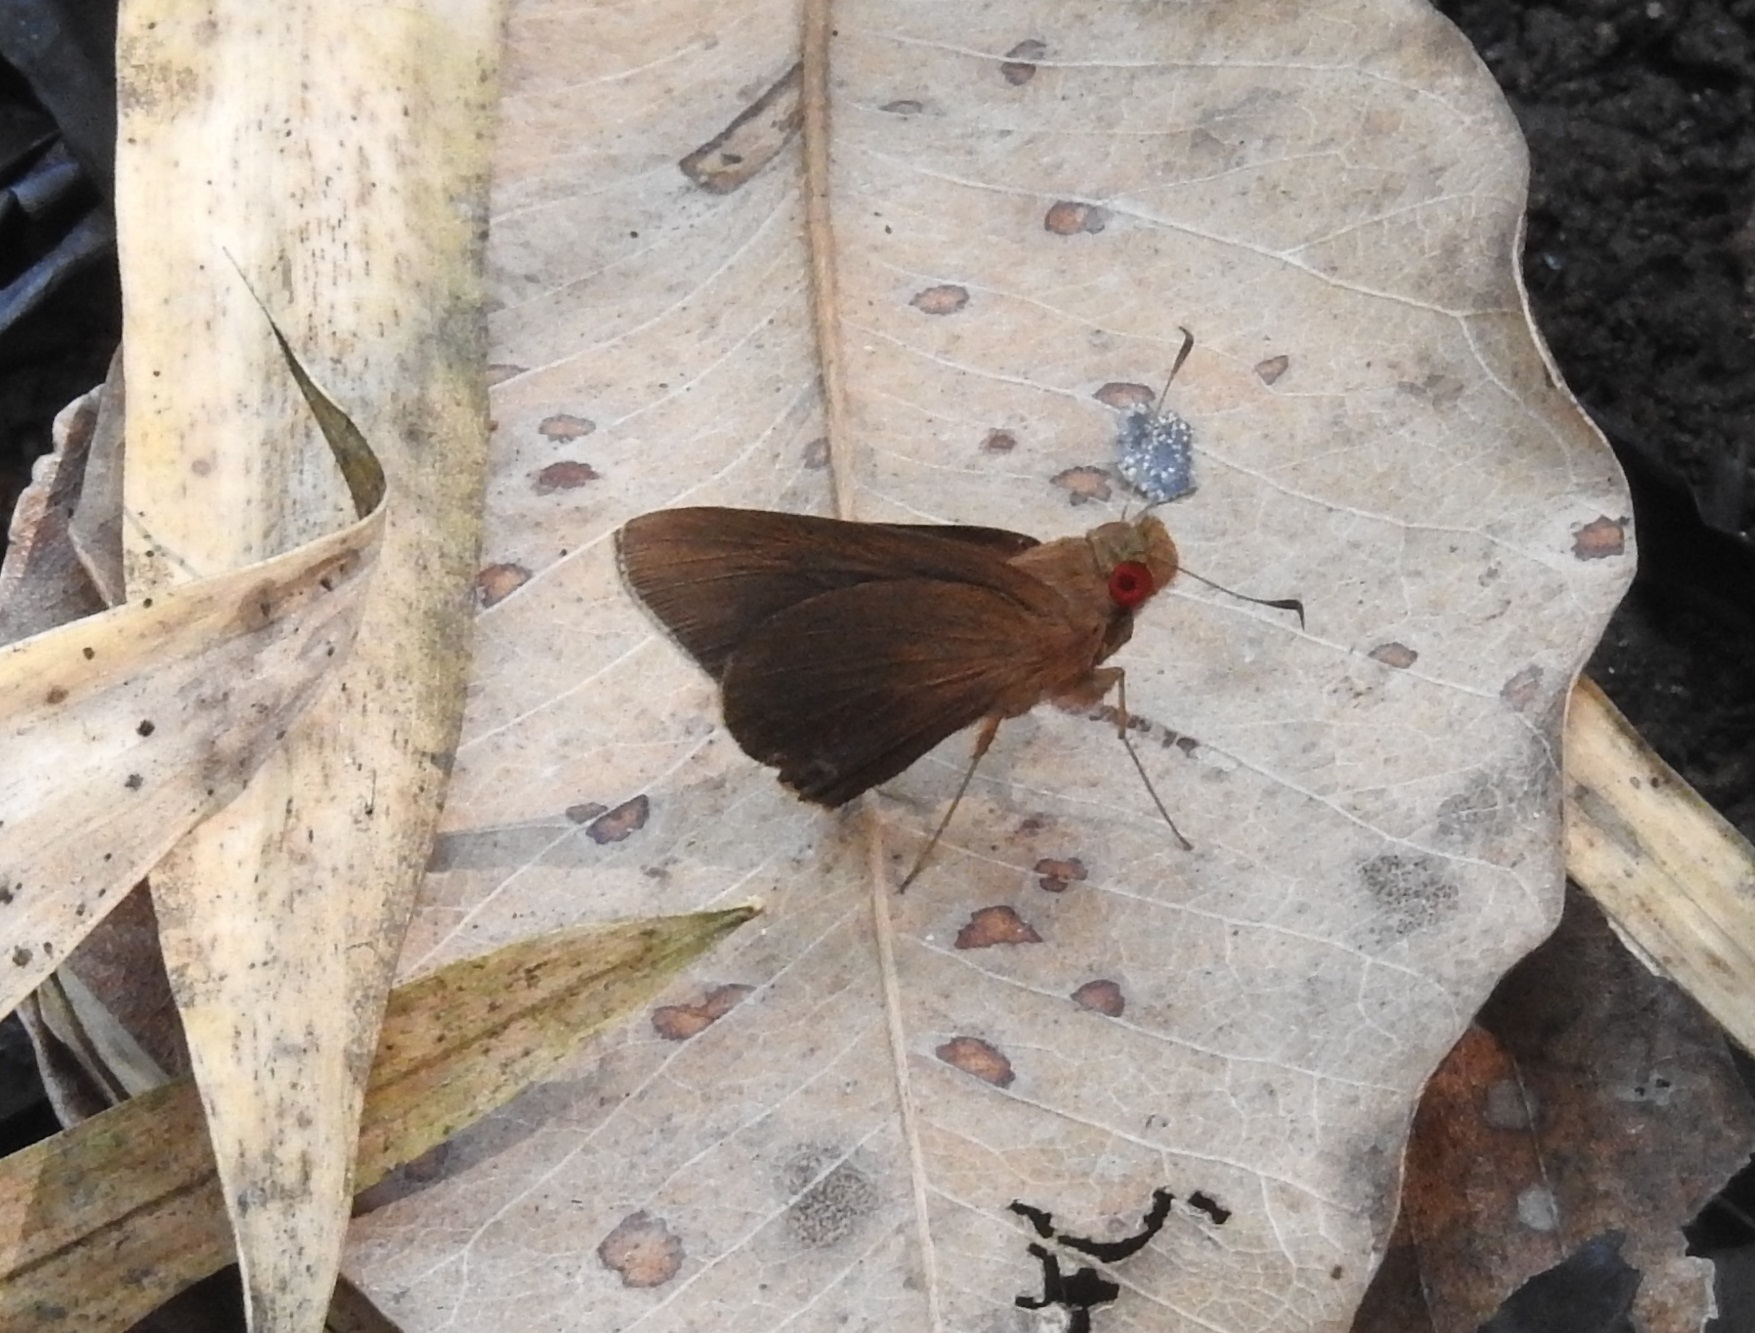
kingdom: Animalia
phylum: Arthropoda
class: Insecta
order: Lepidoptera
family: Hesperiidae
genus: Matapa
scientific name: Matapa aria
